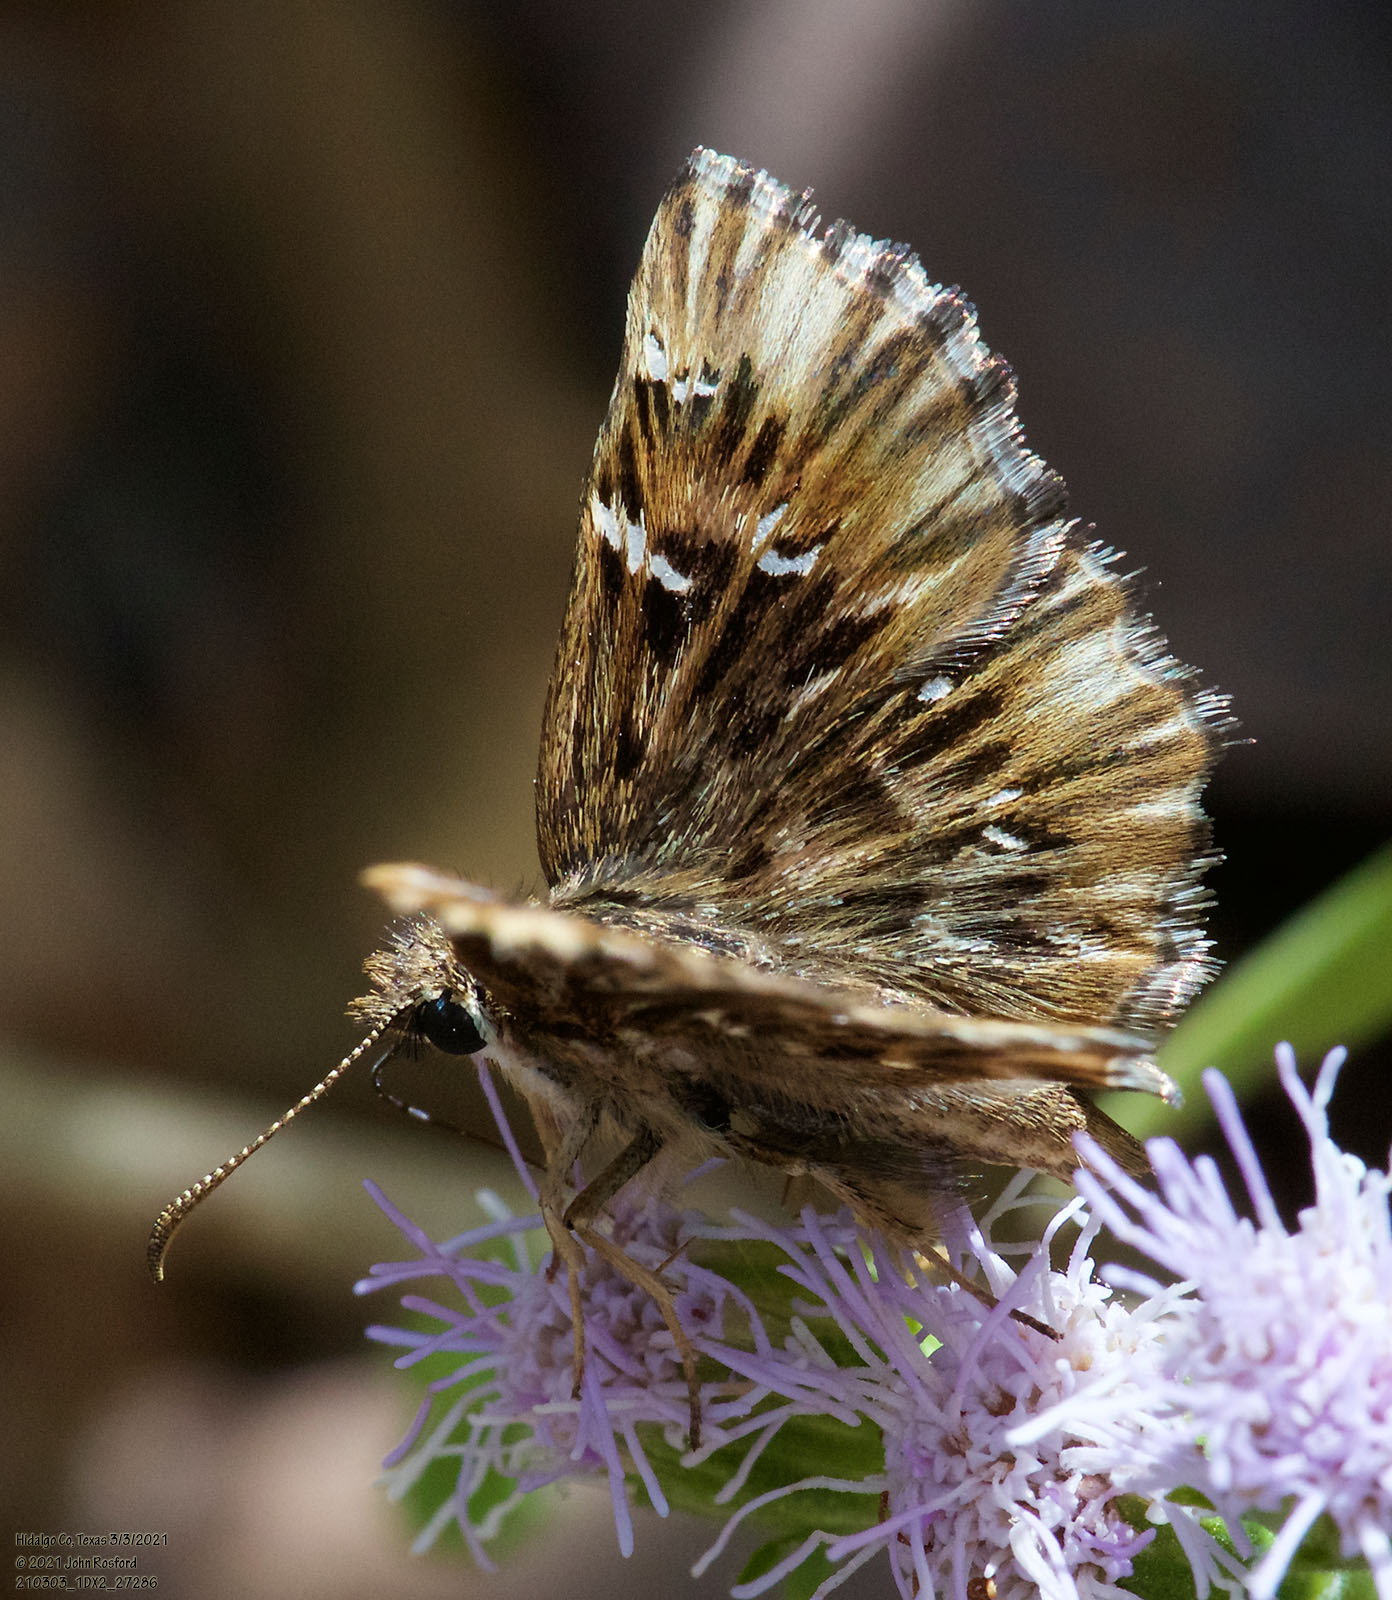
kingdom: Animalia
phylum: Arthropoda
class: Insecta
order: Lepidoptera
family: Hesperiidae
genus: Celotes
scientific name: Celotes nessus
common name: Common streaky-skipper
